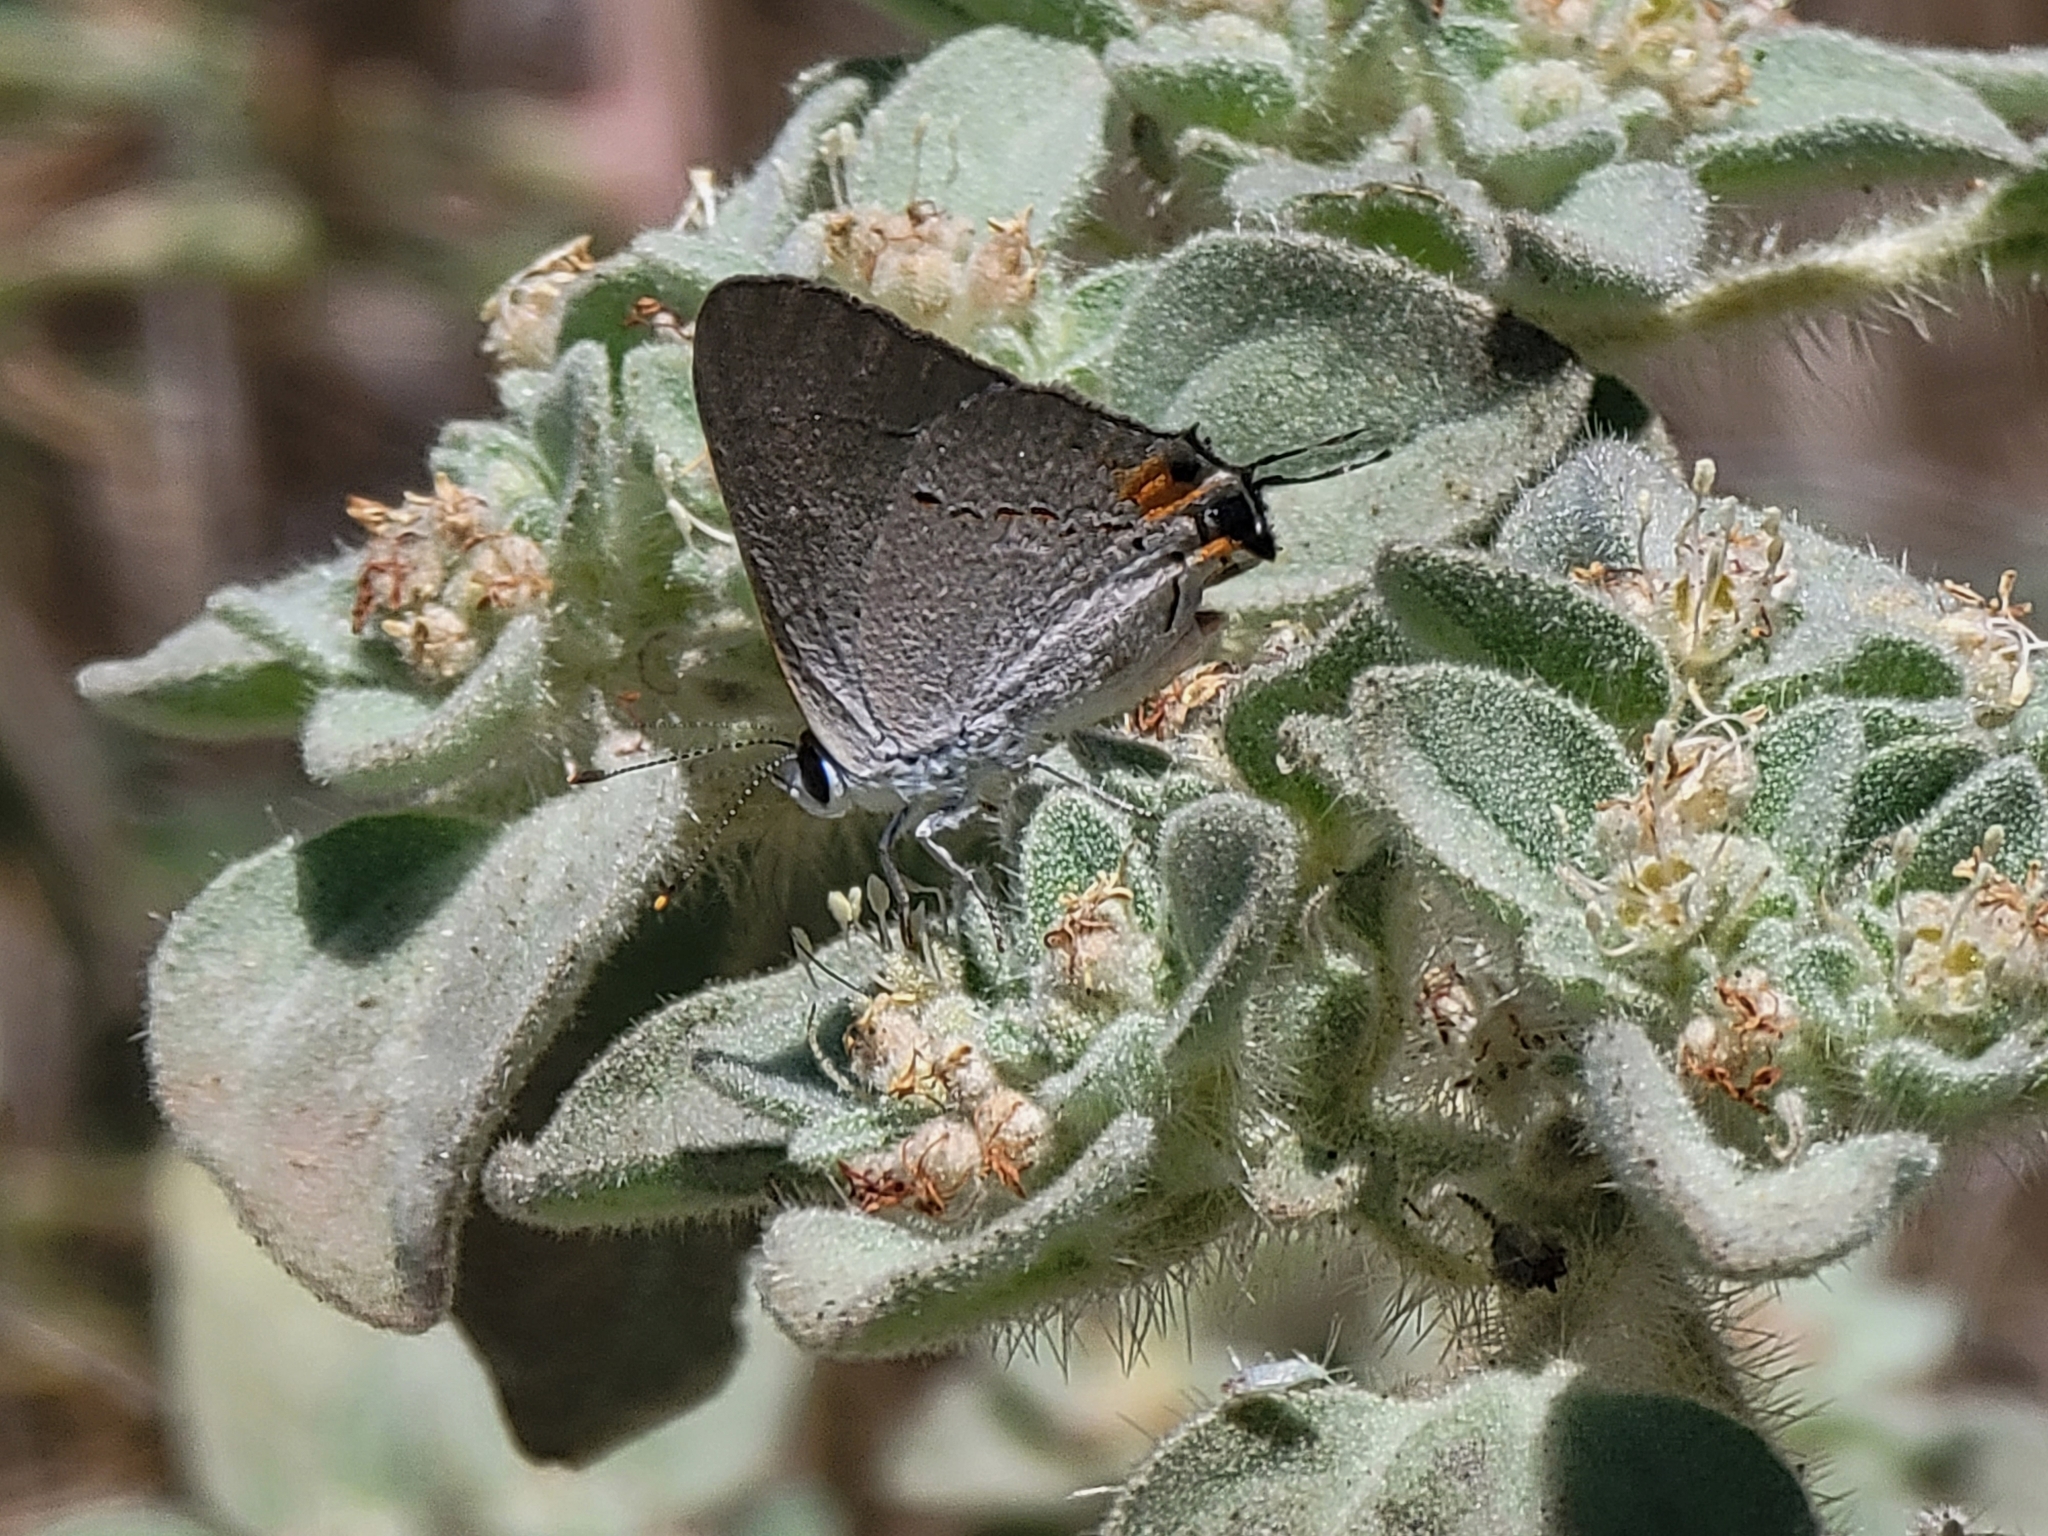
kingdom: Animalia
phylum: Arthropoda
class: Insecta
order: Lepidoptera
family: Lycaenidae
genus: Strymon
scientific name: Strymon melinus
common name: Gray hairstreak
